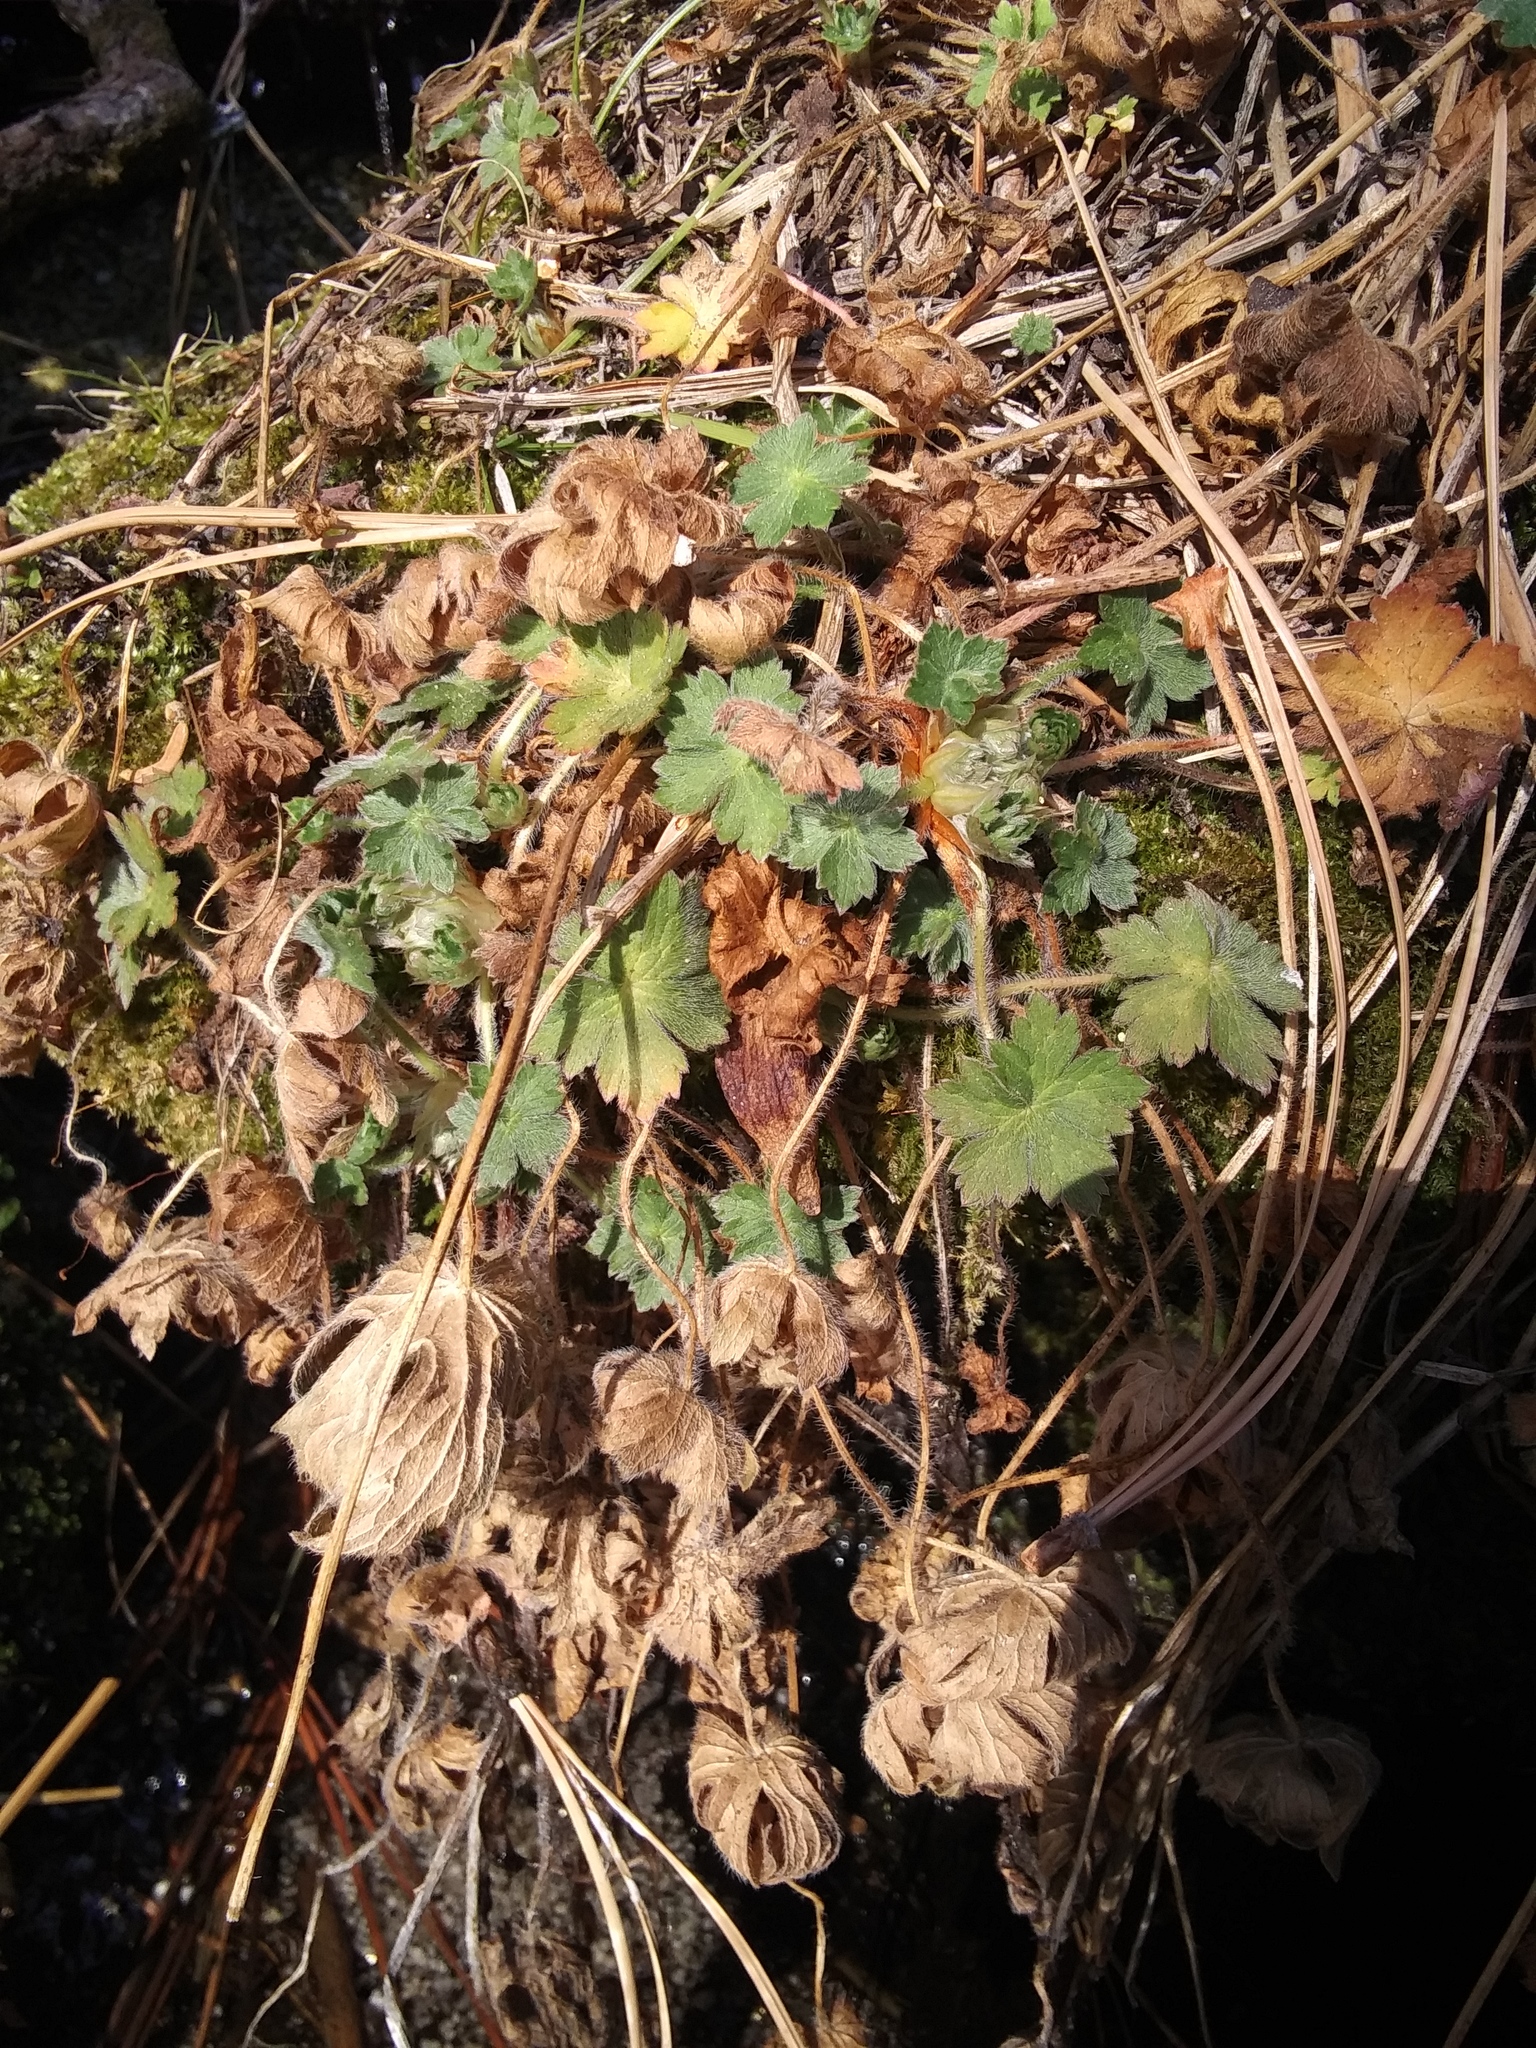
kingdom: Plantae
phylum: Tracheophyta
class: Magnoliopsida
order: Geraniales
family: Geraniaceae
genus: Geranium
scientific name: Geranium
